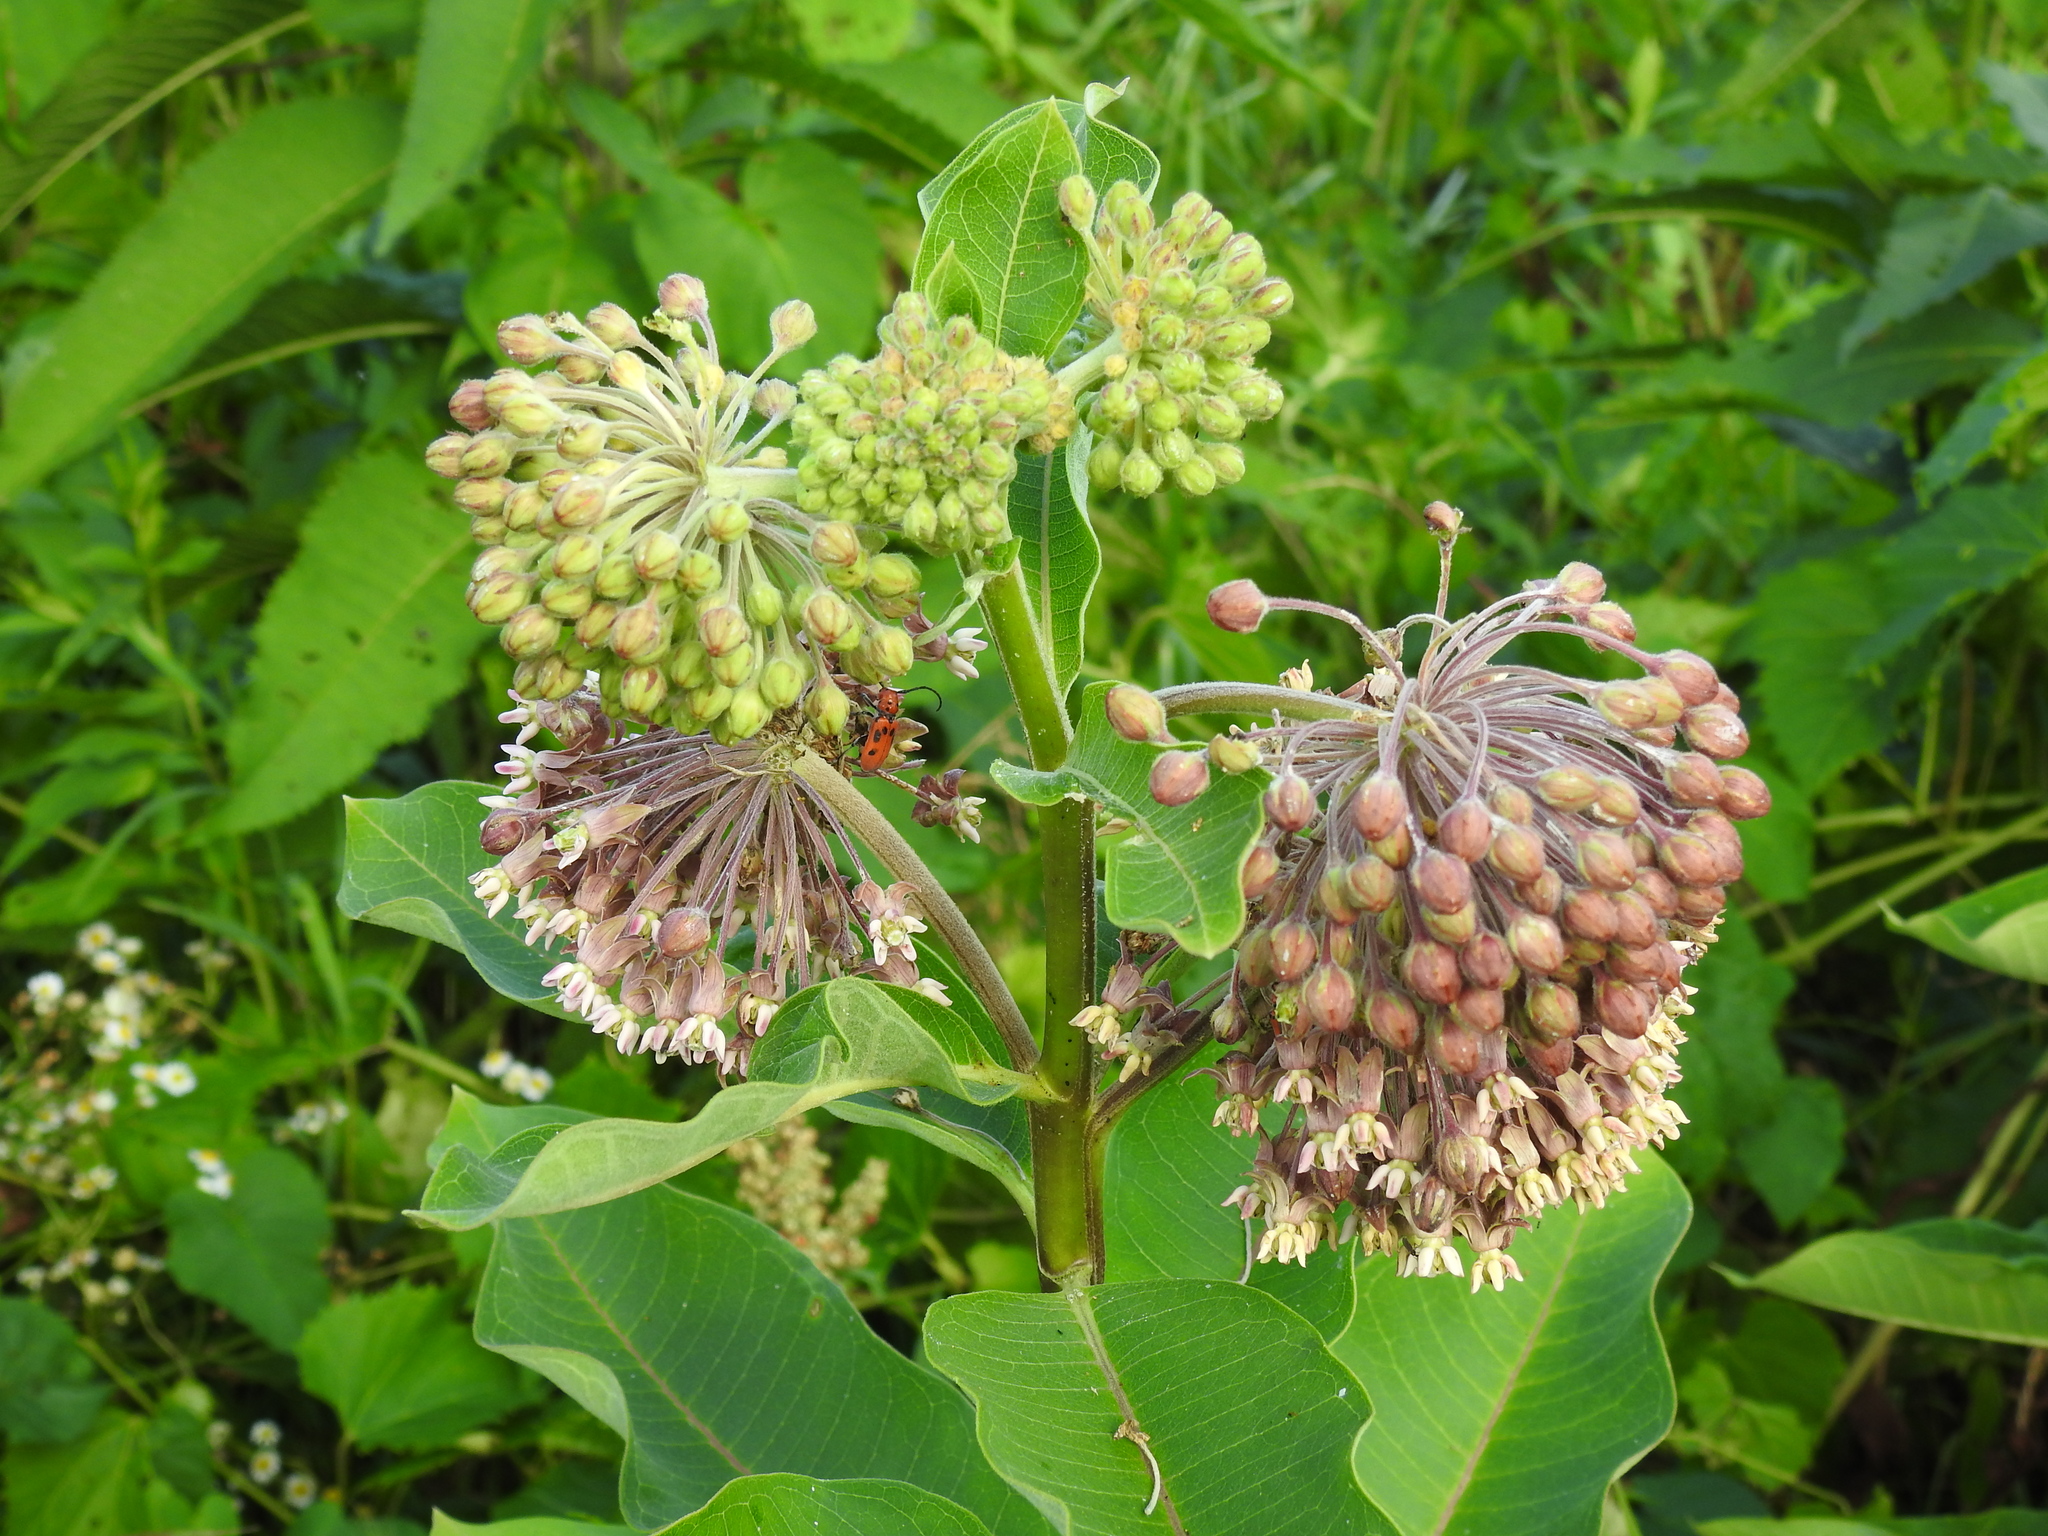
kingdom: Plantae
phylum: Tracheophyta
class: Magnoliopsida
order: Gentianales
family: Apocynaceae
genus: Asclepias
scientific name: Asclepias syriaca
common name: Common milkweed
